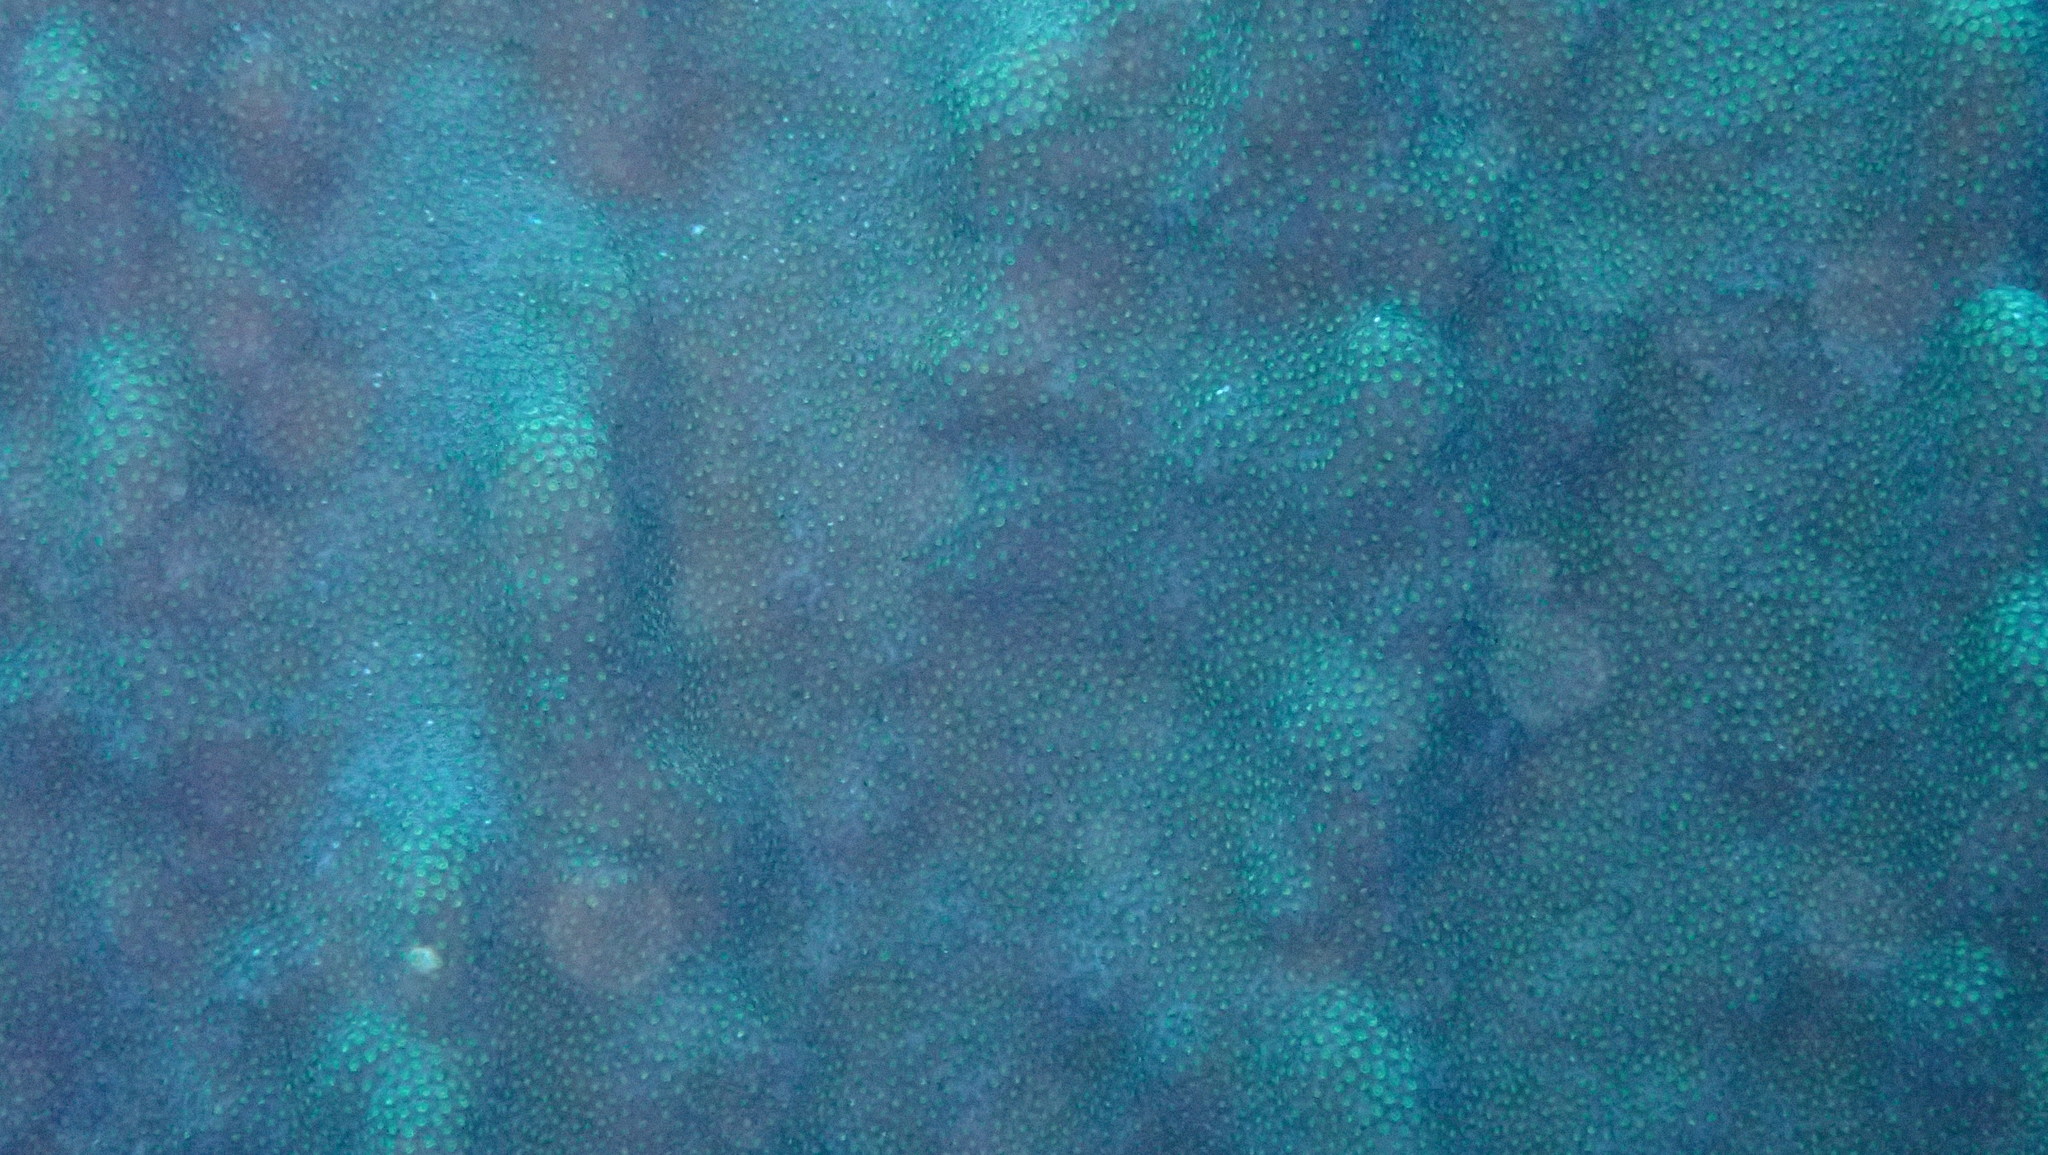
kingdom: Animalia
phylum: Cnidaria
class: Anthozoa
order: Scleractinia
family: Merulinidae
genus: Orbicella
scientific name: Orbicella faveolata
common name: Mountainous star coral
